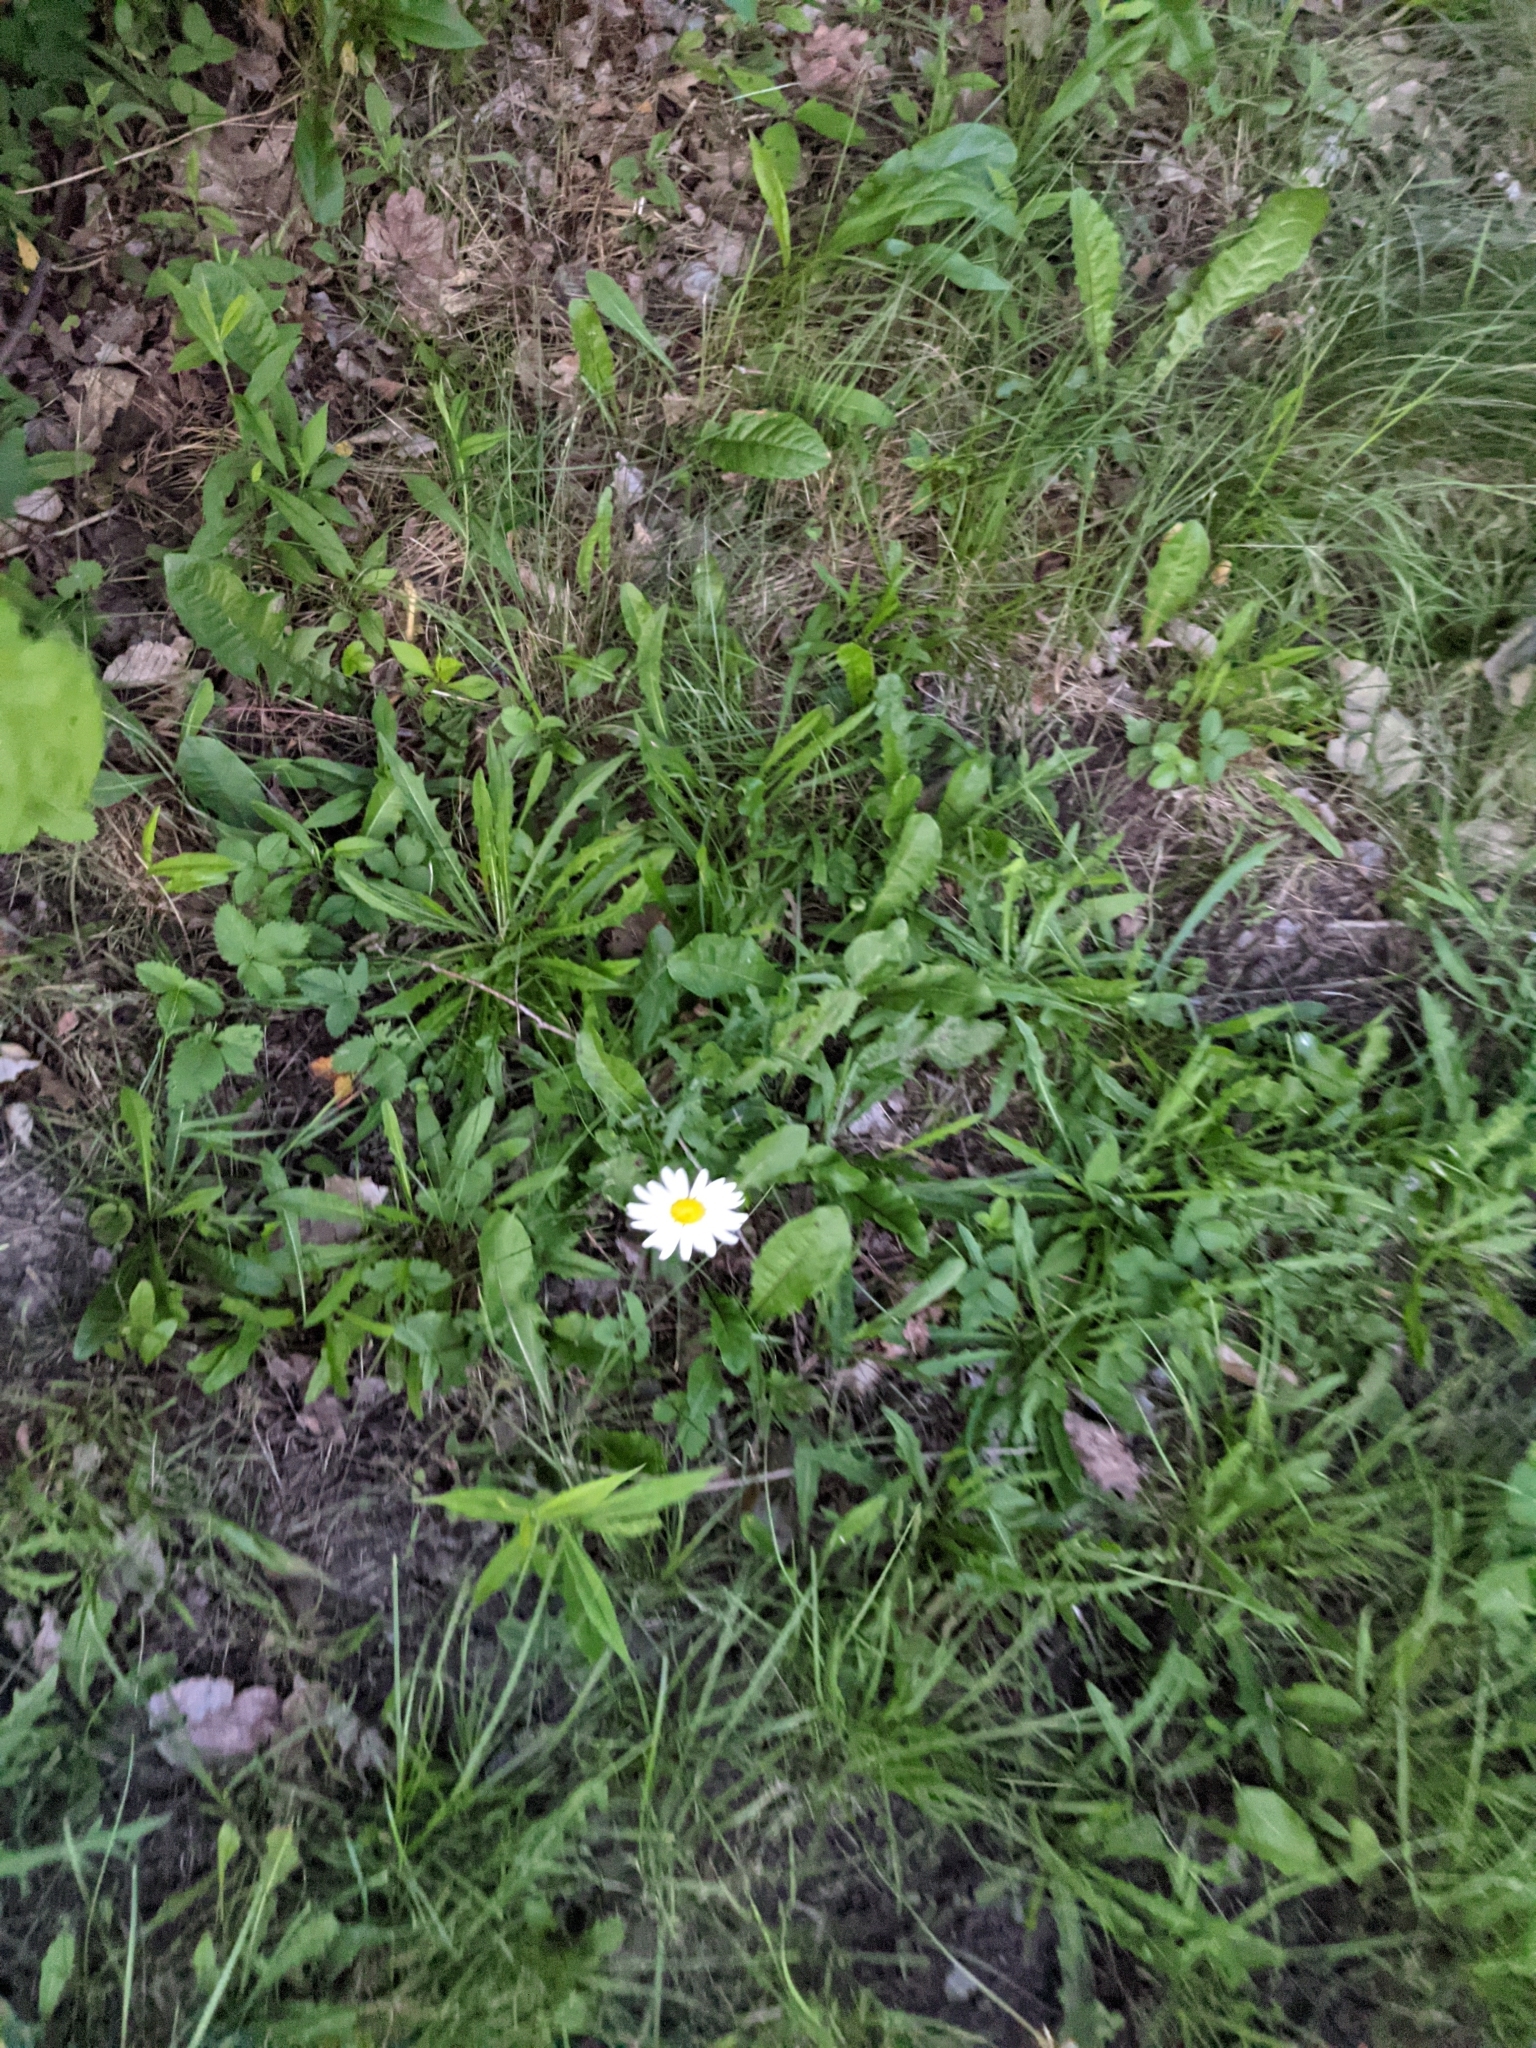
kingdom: Plantae
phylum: Tracheophyta
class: Magnoliopsida
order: Asterales
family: Asteraceae
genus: Leucanthemum
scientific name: Leucanthemum vulgare
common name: Oxeye daisy
